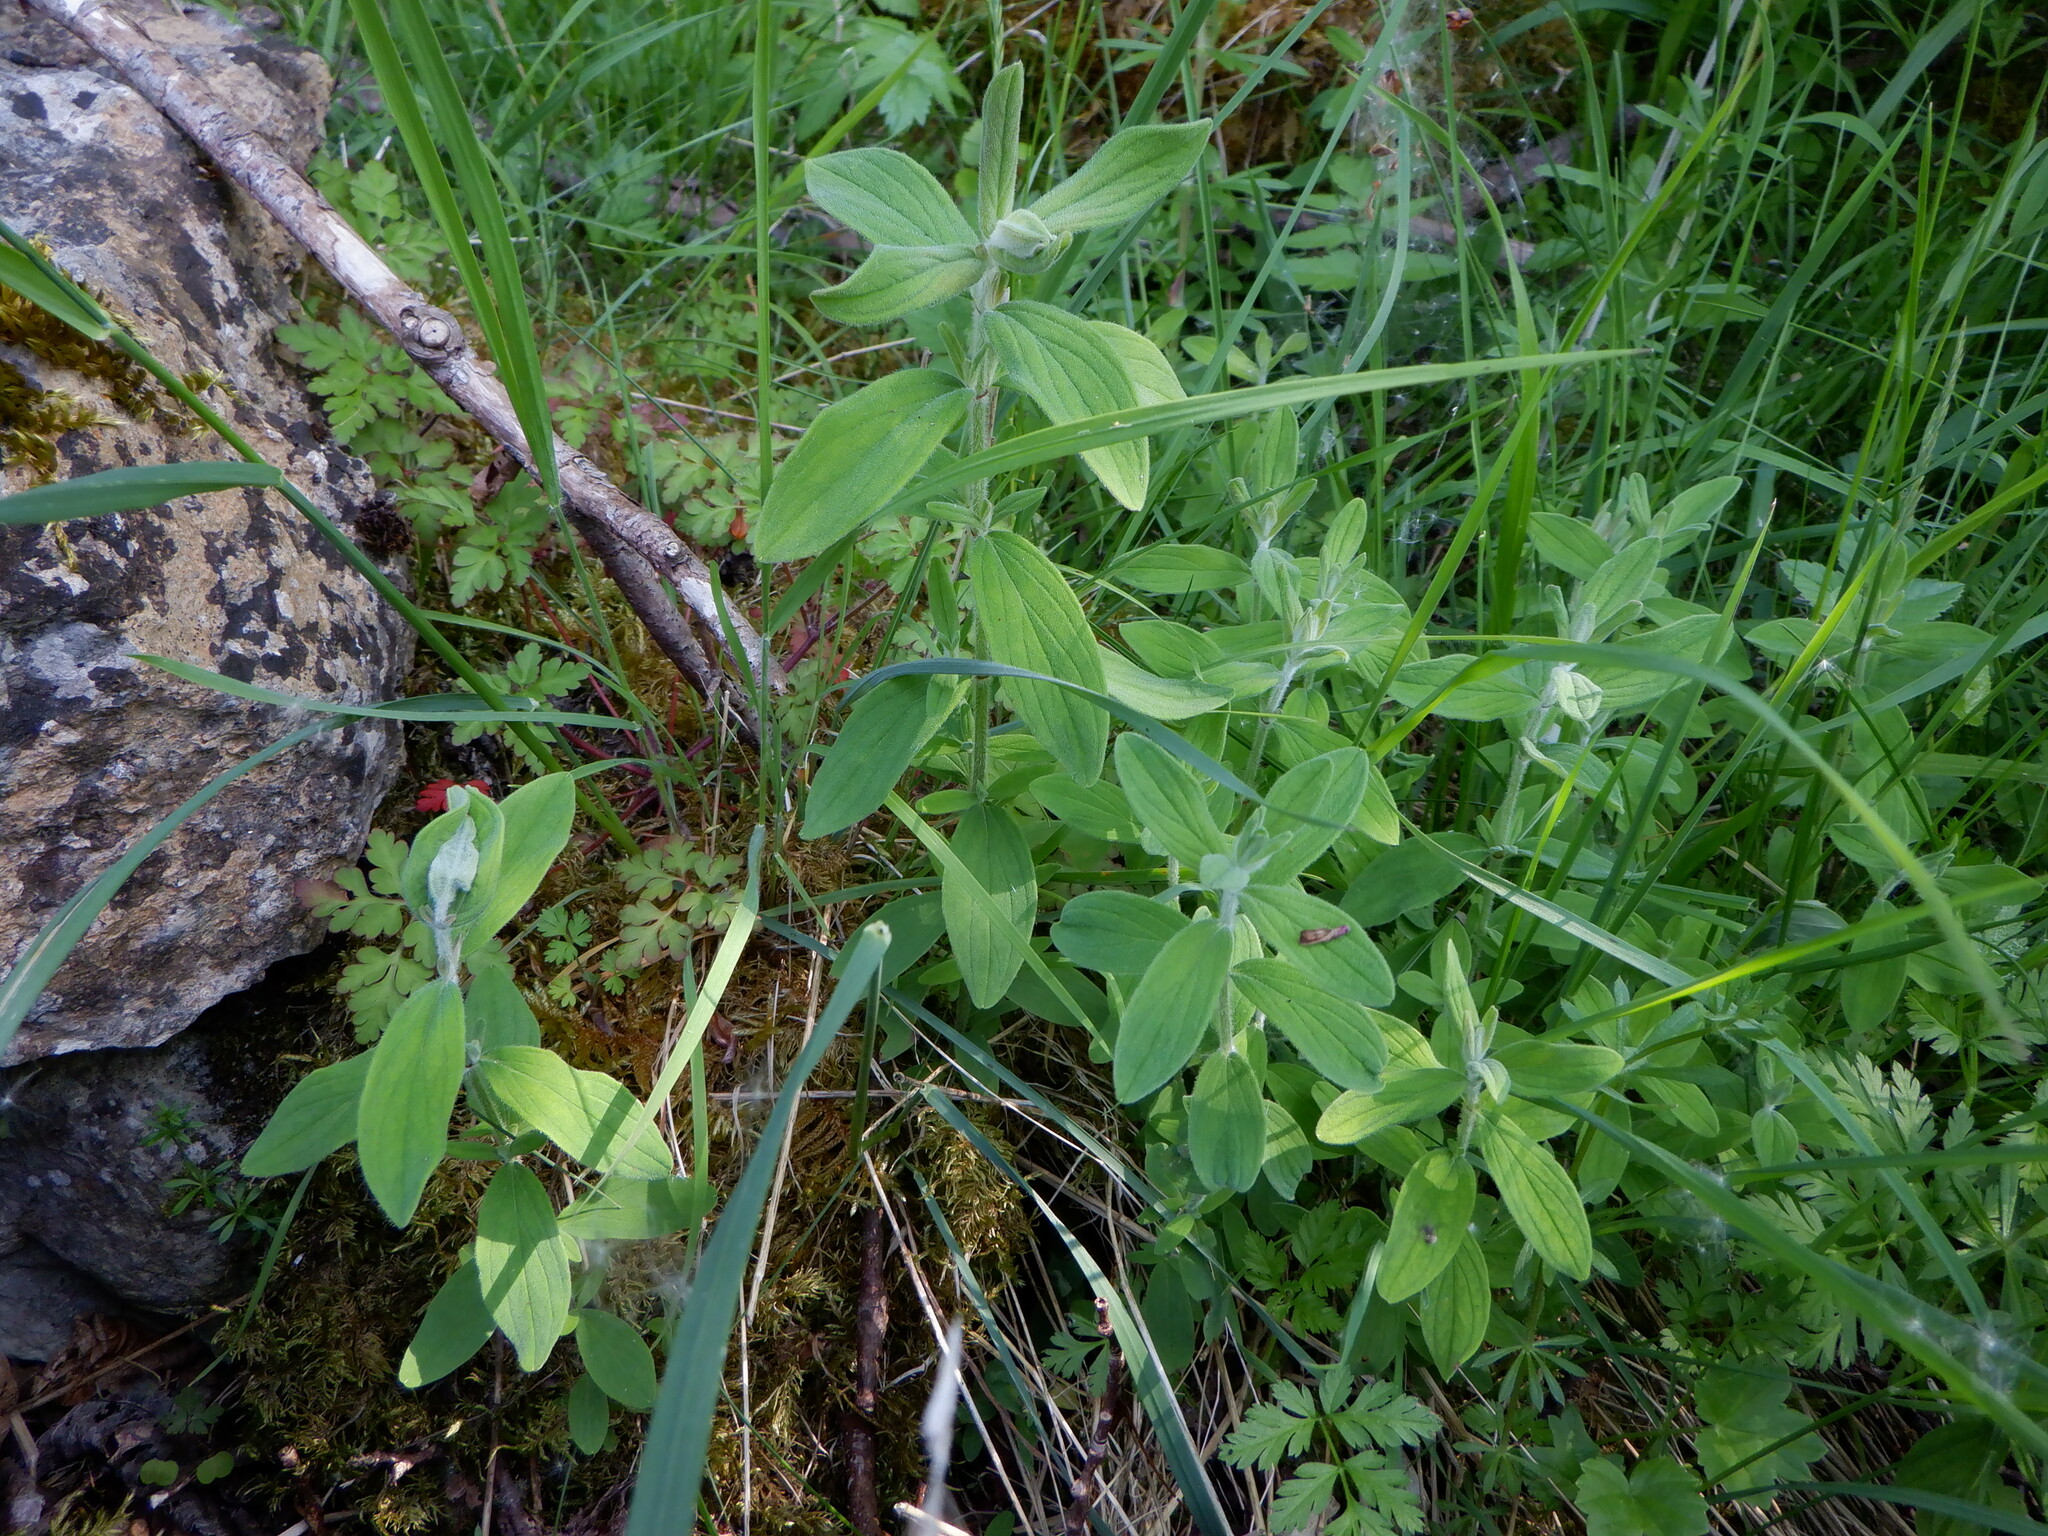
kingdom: Plantae
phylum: Tracheophyta
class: Magnoliopsida
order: Malpighiales
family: Hypericaceae
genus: Hypericum
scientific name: Hypericum hirsutum
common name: Hairy st. john's-wort
